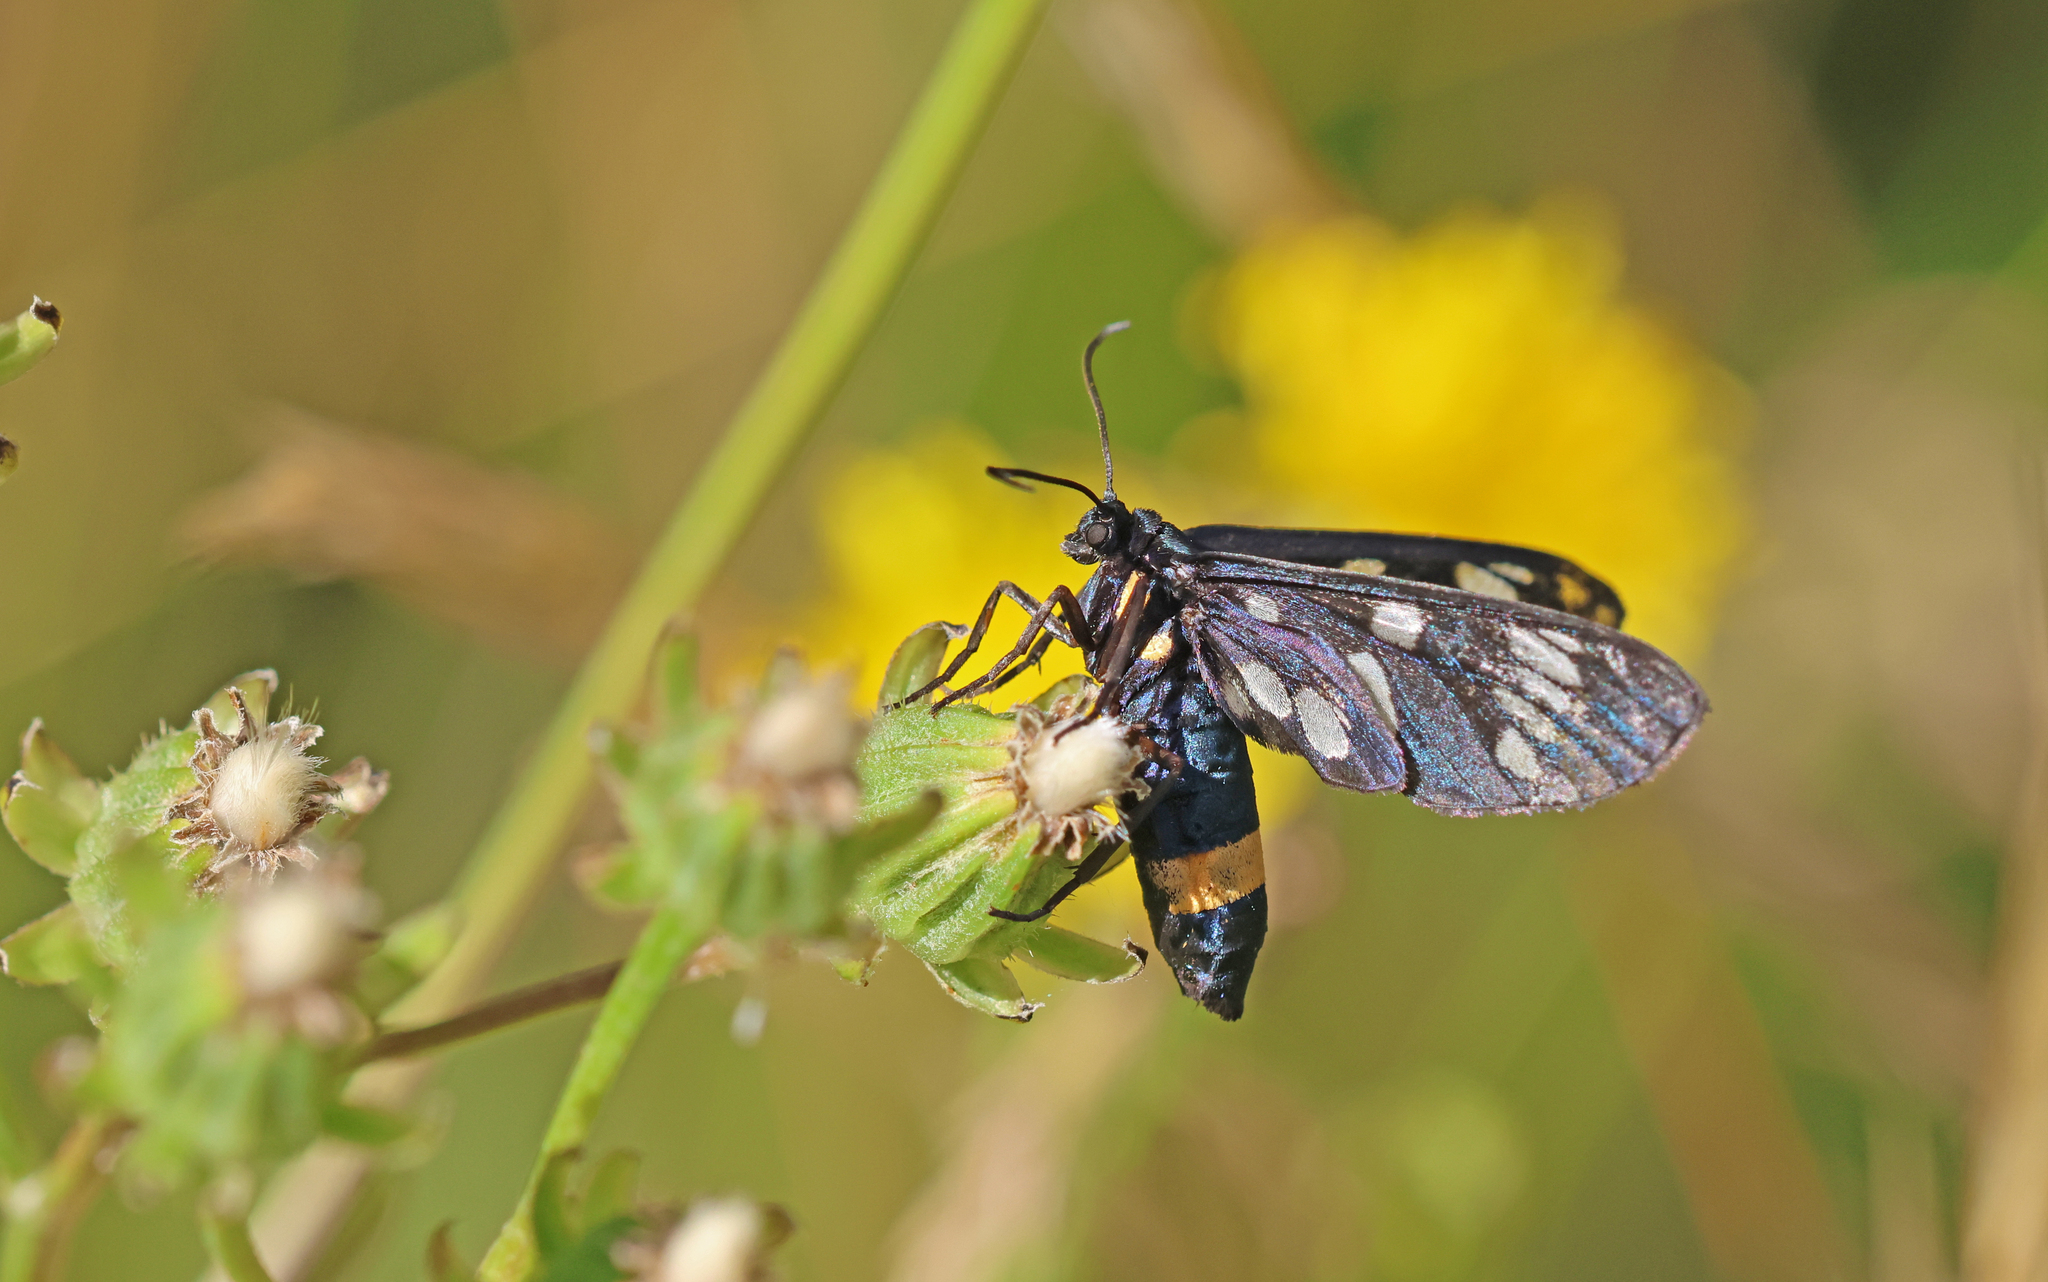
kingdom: Animalia
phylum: Arthropoda
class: Insecta
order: Lepidoptera
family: Erebidae
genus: Amata
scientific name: Amata phegea
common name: Nine-spotted
